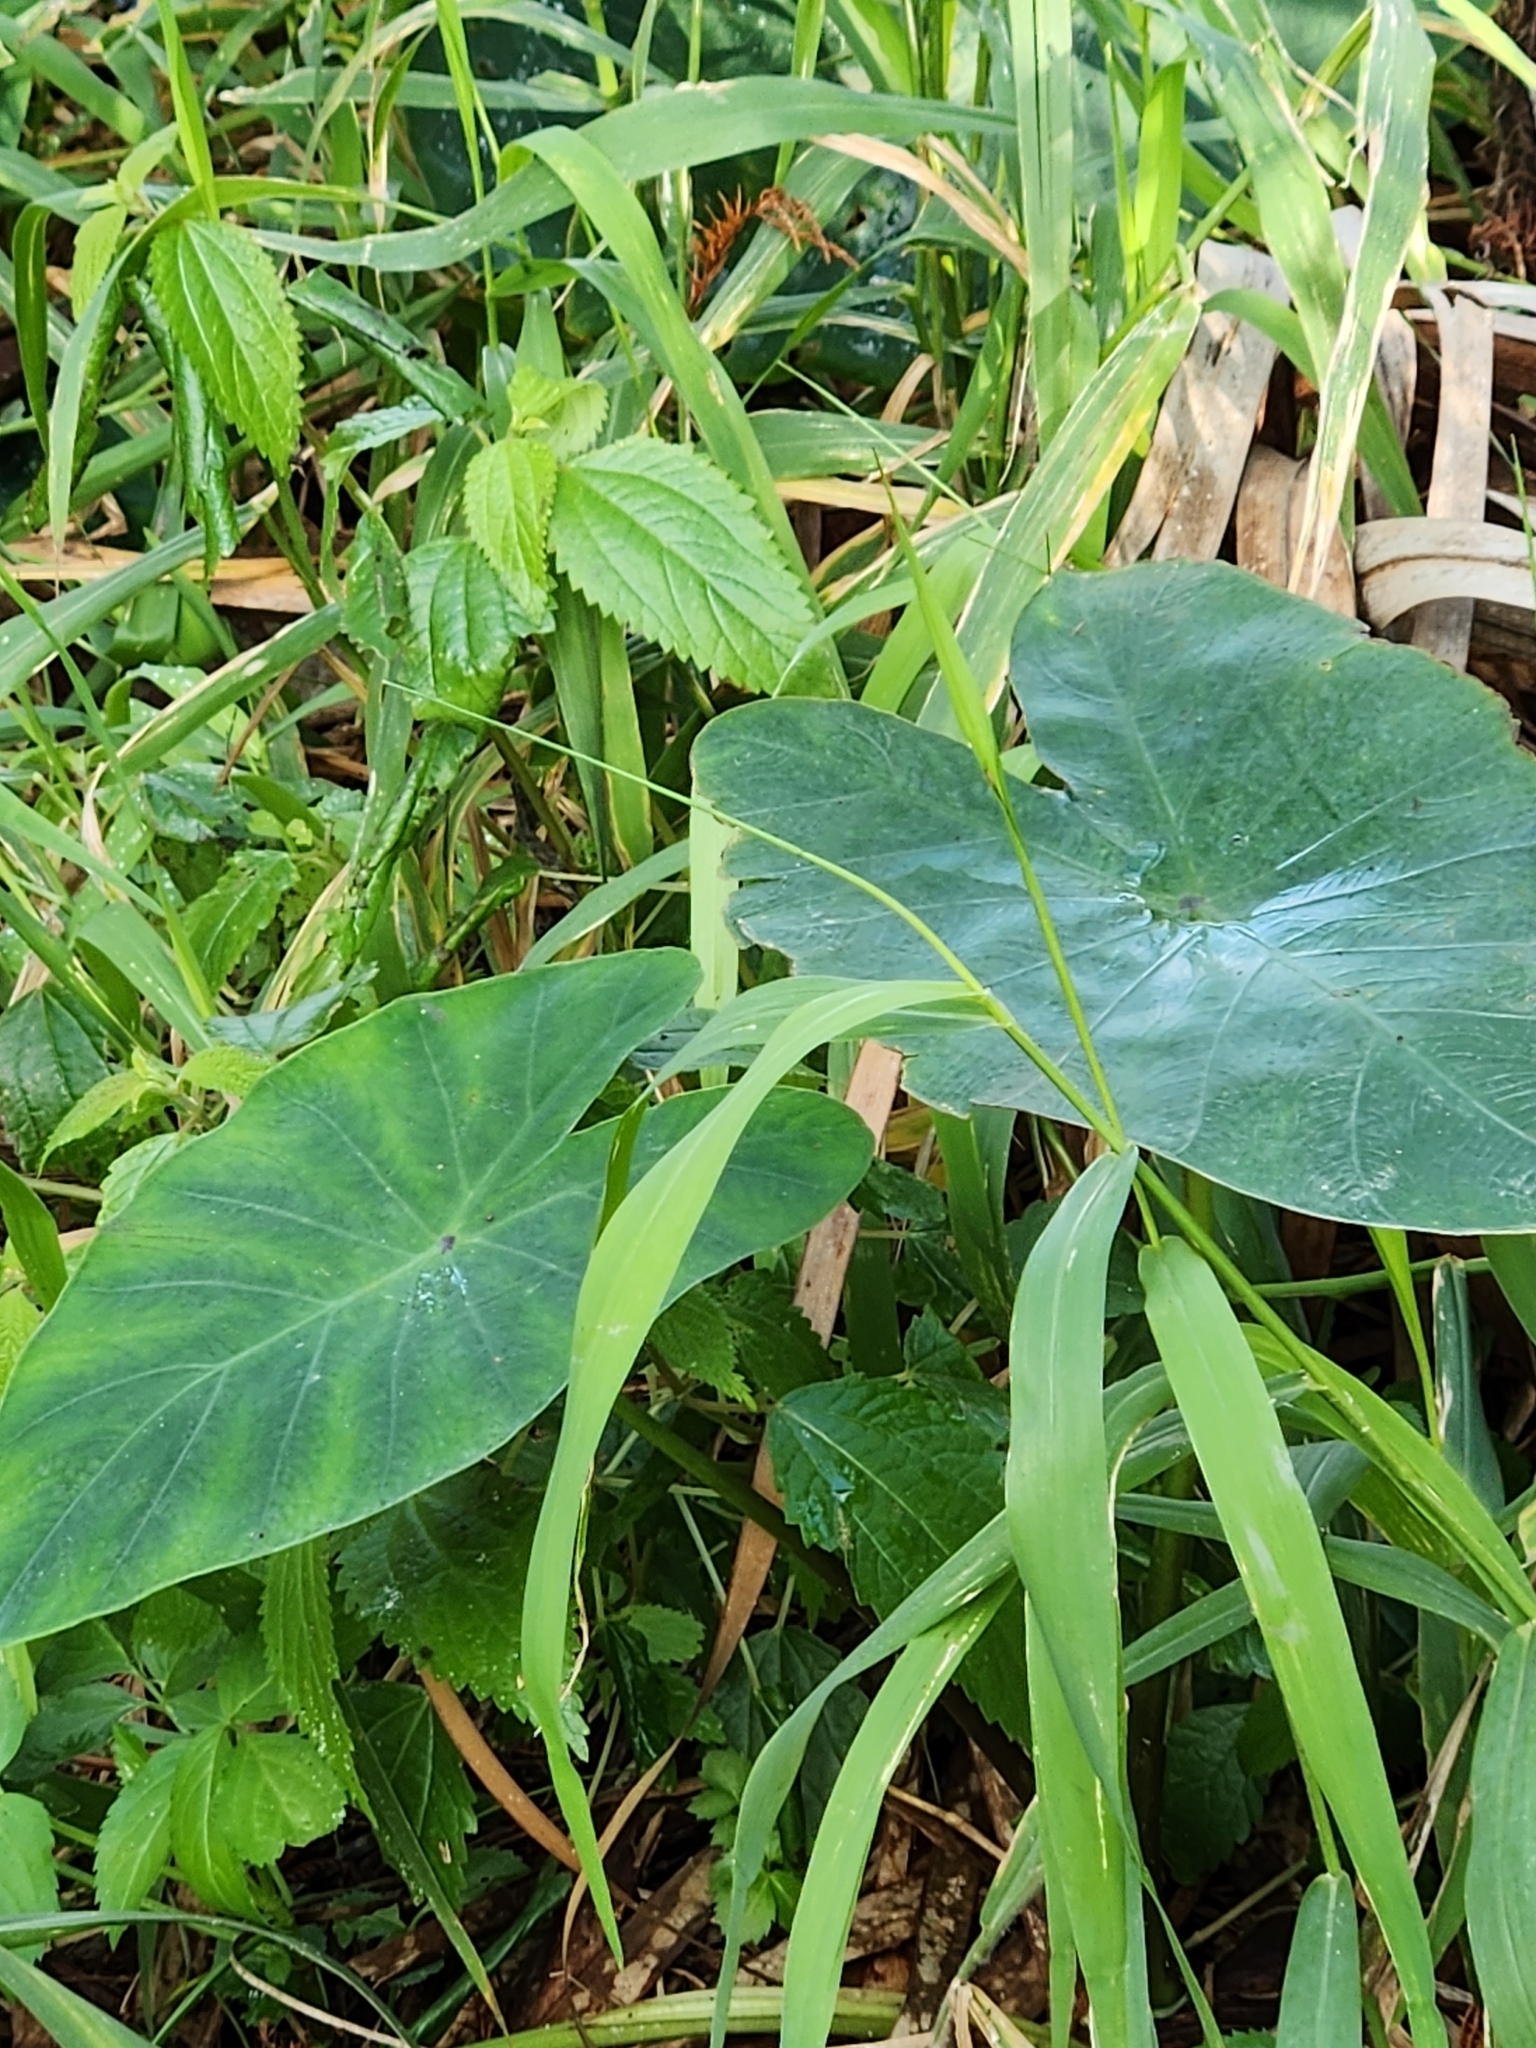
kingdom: Plantae
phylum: Tracheophyta
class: Liliopsida
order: Alismatales
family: Araceae
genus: Colocasia
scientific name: Colocasia esculenta
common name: Taro
